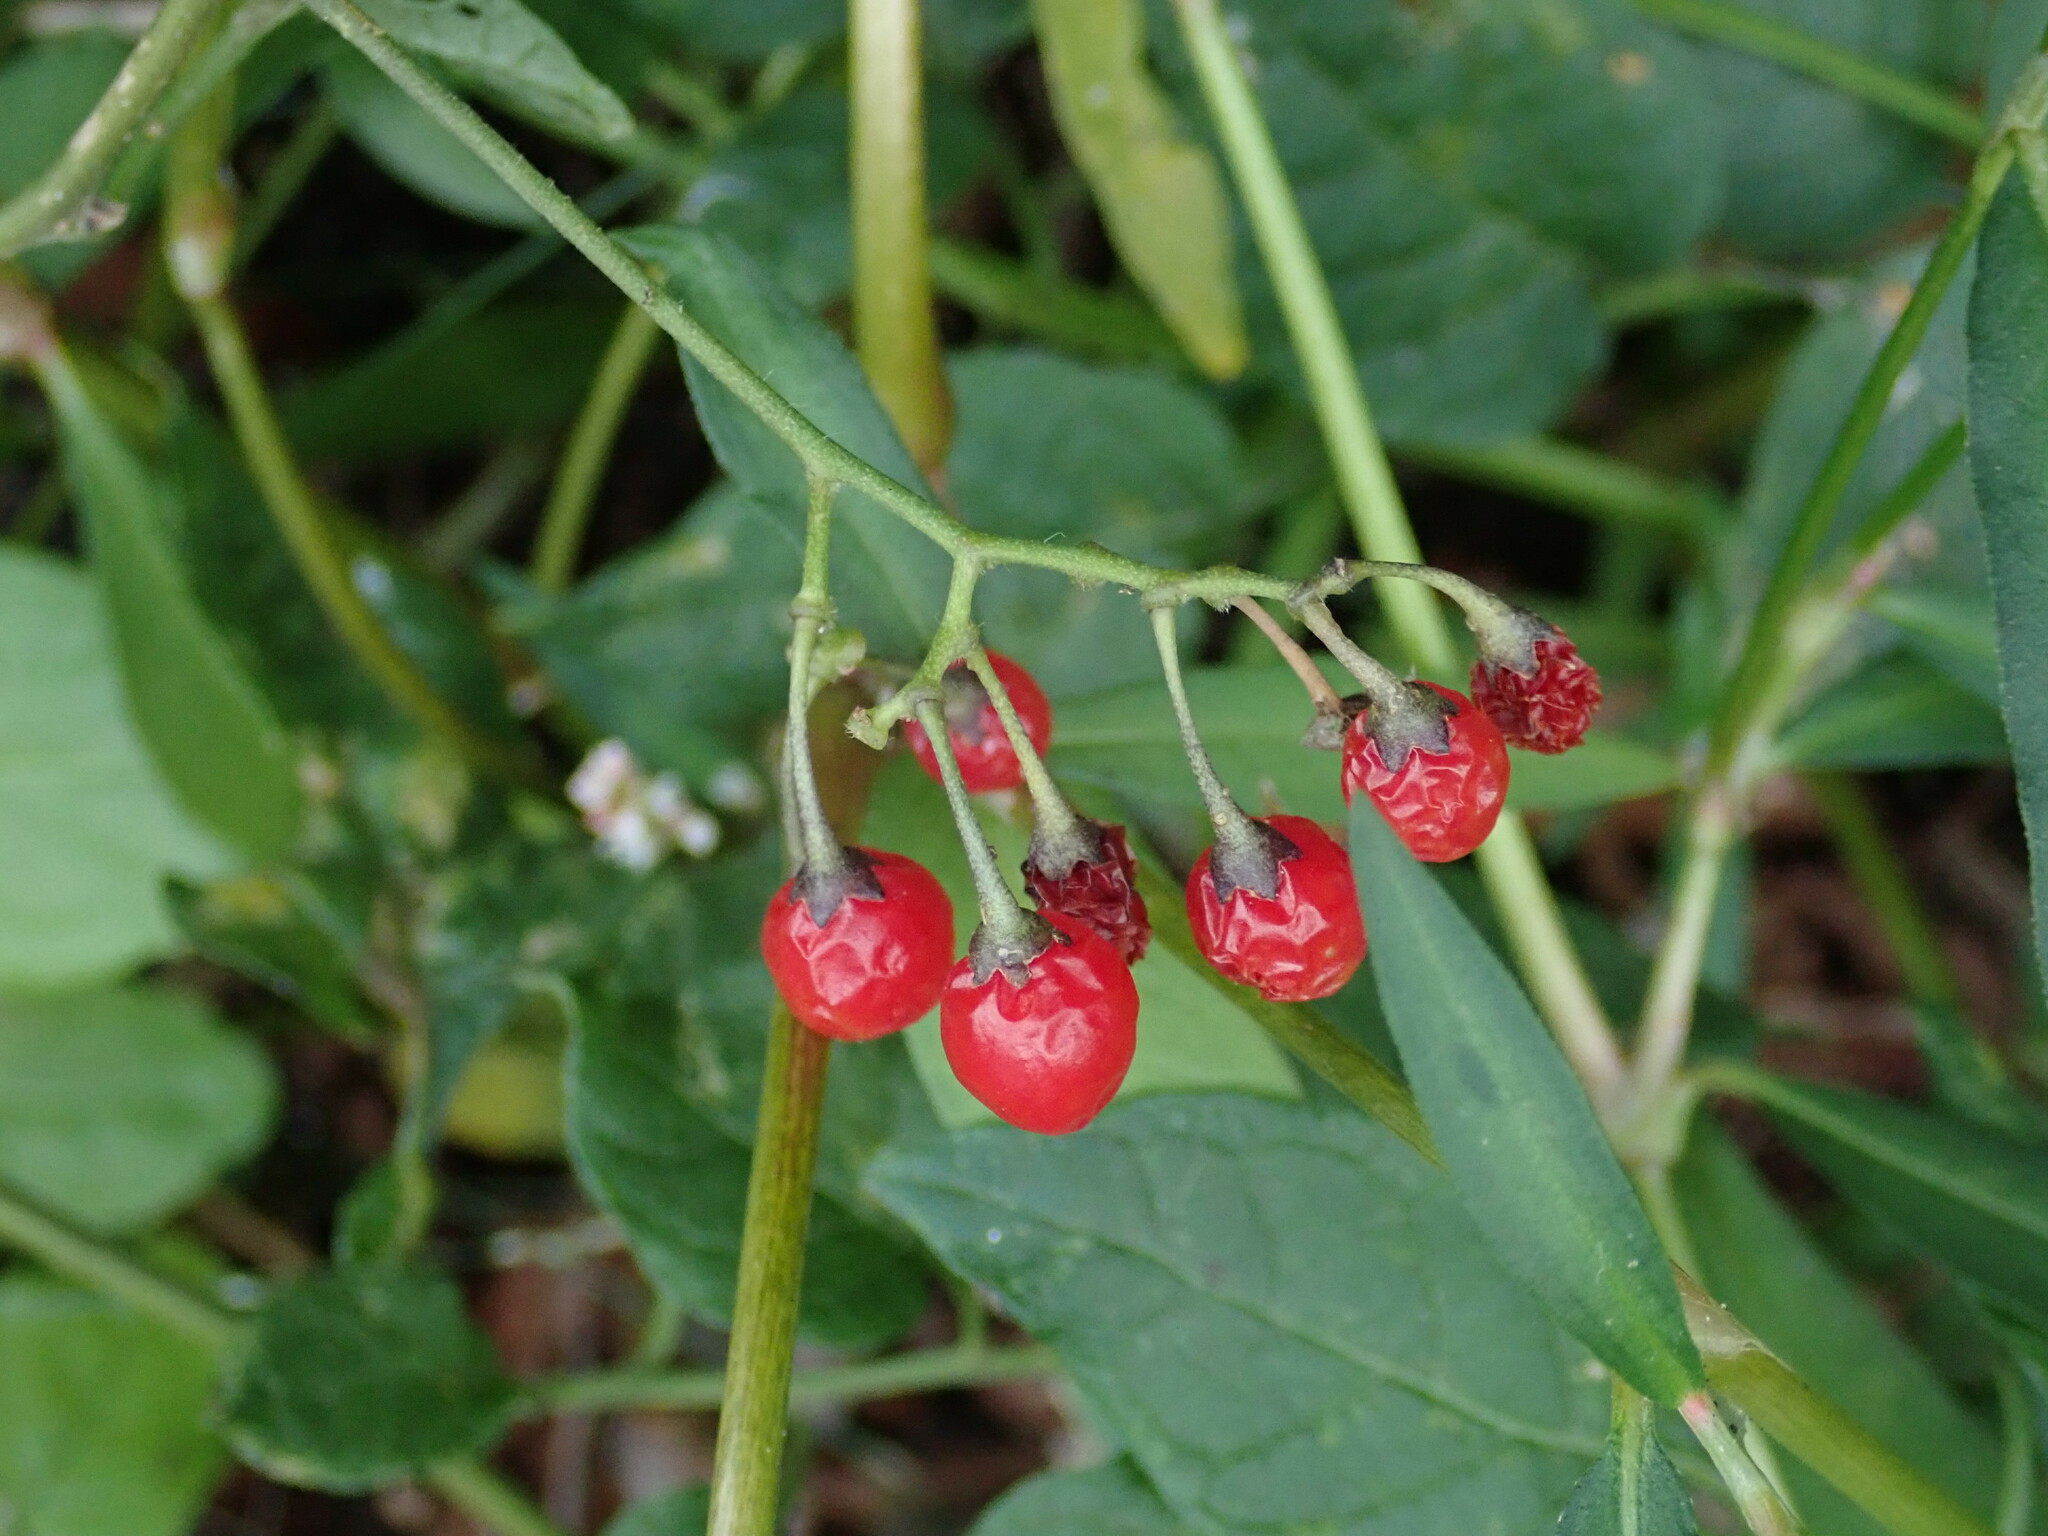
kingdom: Plantae
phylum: Tracheophyta
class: Magnoliopsida
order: Solanales
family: Solanaceae
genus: Solanum
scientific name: Solanum dulcamara
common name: Climbing nightshade
